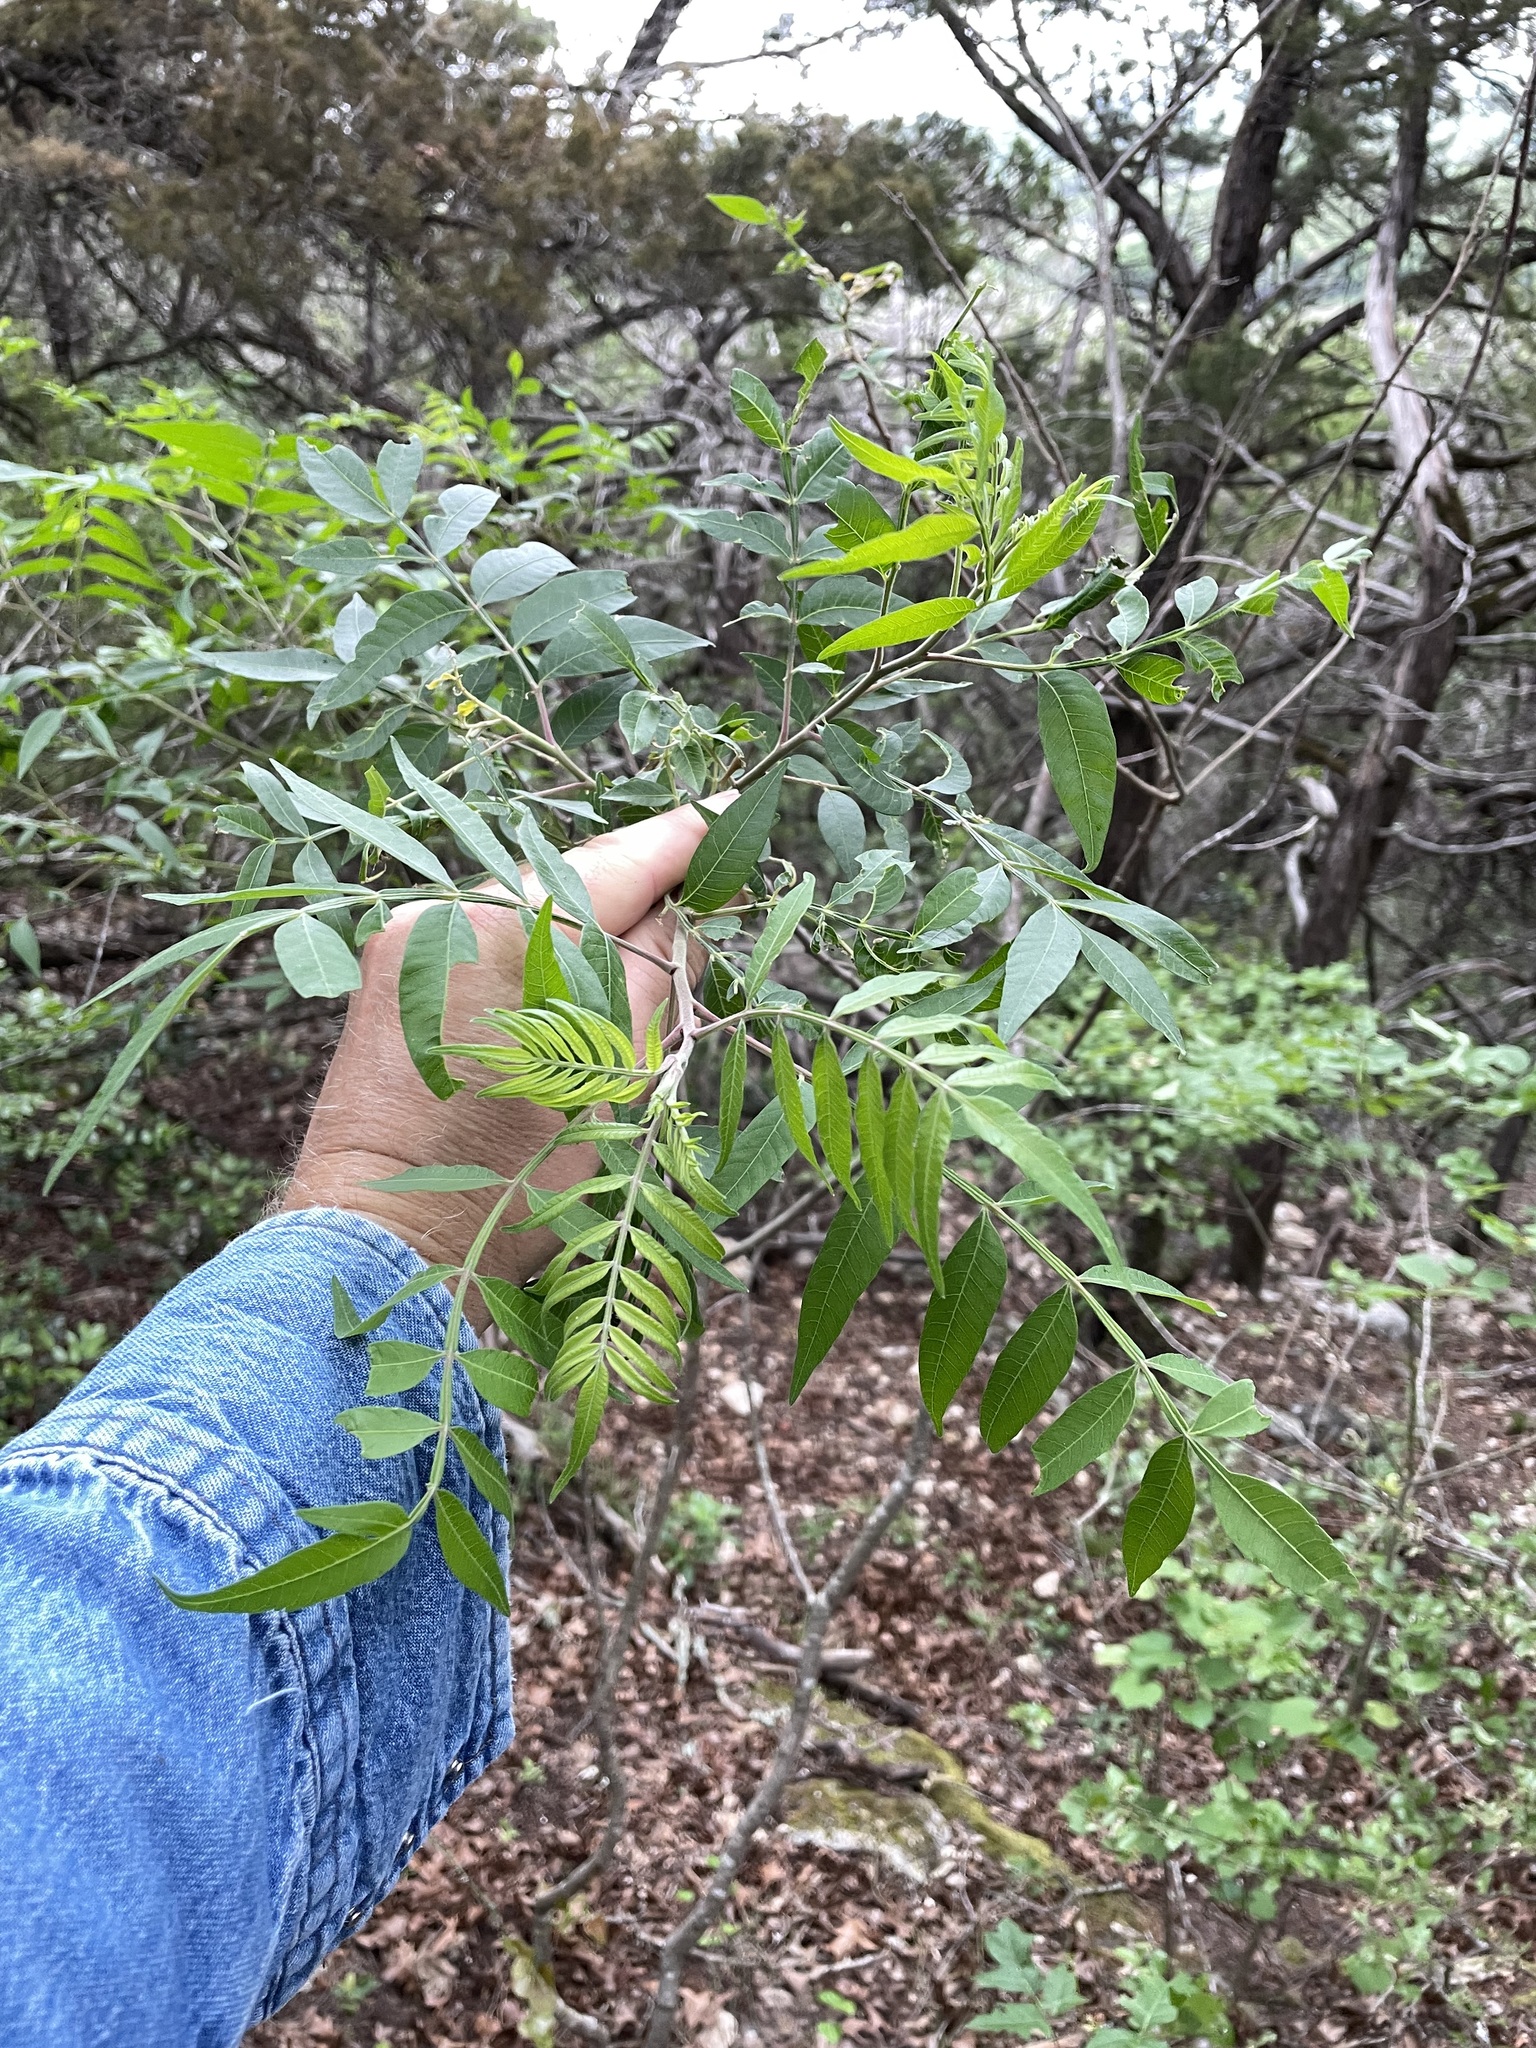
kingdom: Plantae
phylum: Tracheophyta
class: Magnoliopsida
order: Sapindales
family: Anacardiaceae
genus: Rhus
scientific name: Rhus lanceolata
